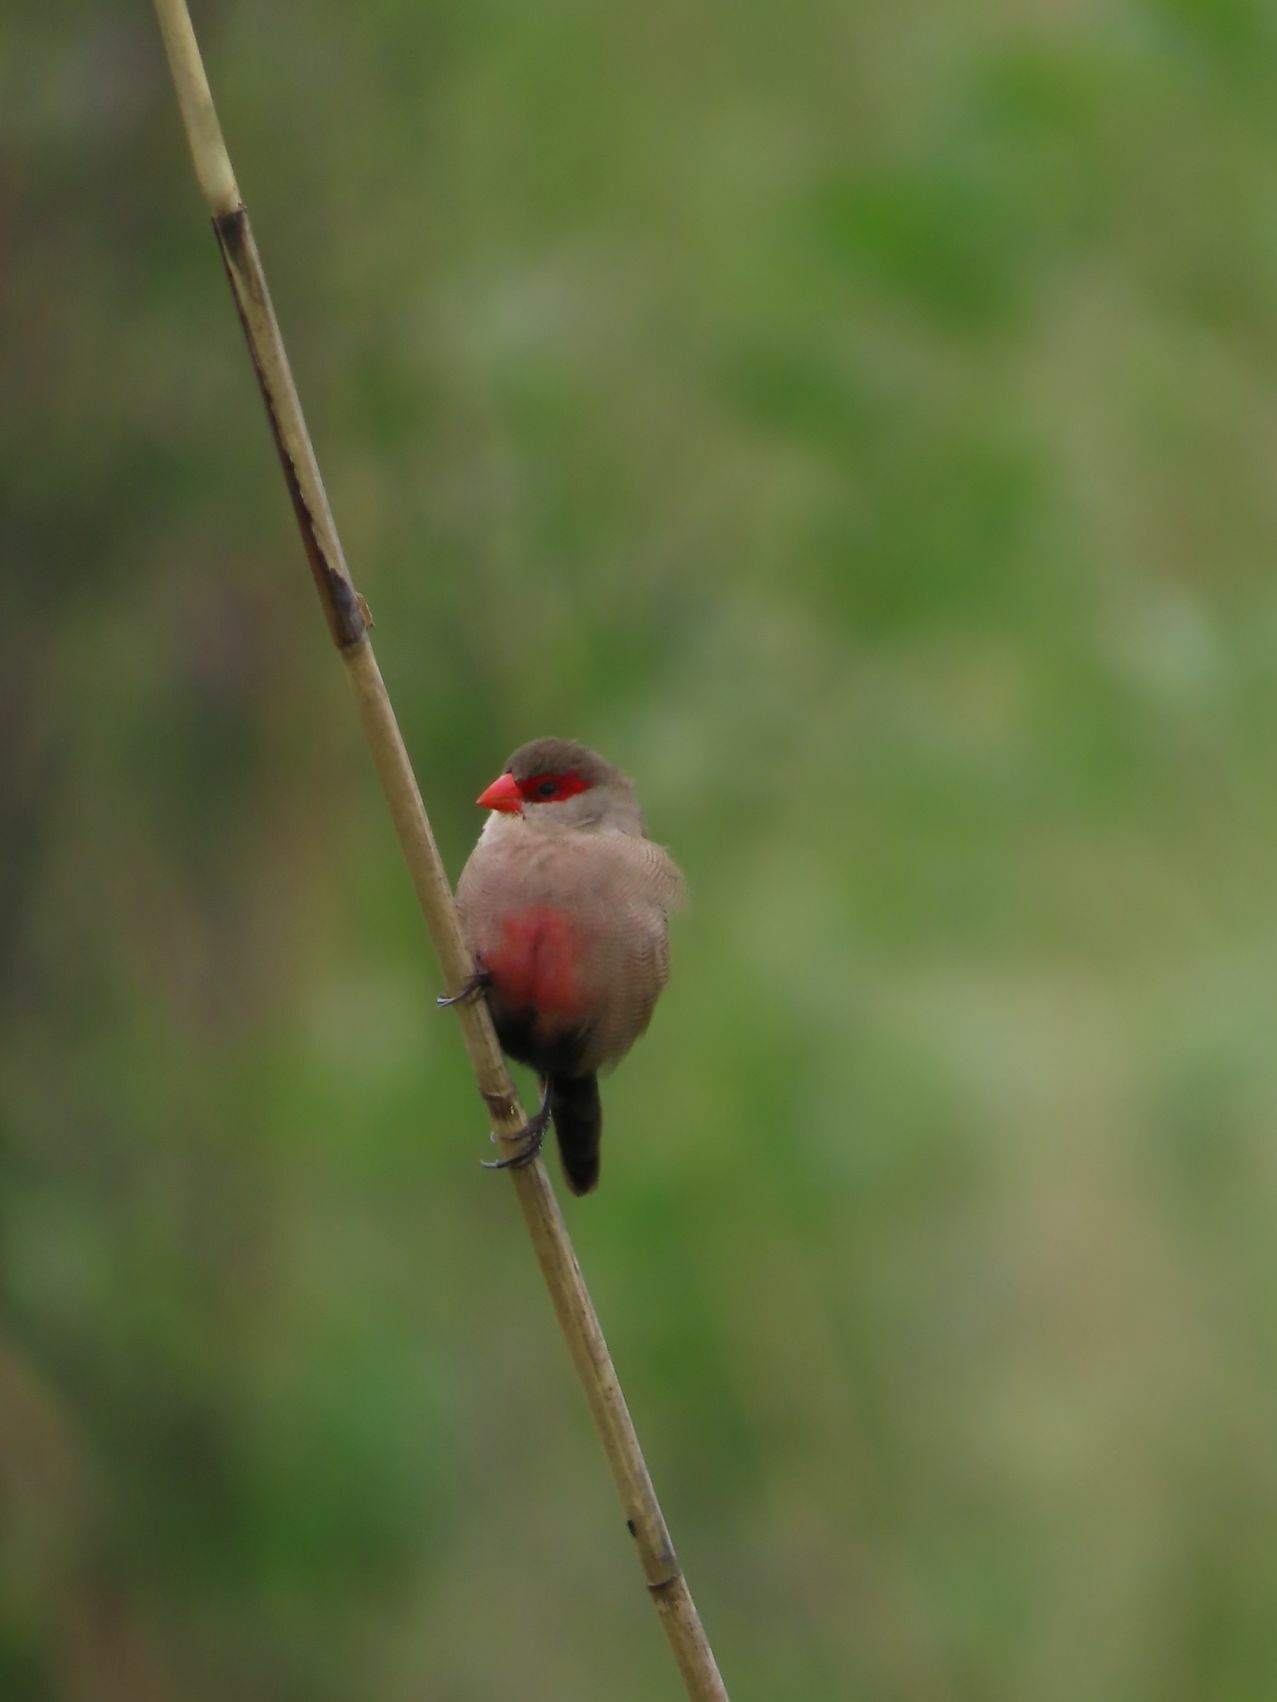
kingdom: Animalia
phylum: Chordata
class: Aves
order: Passeriformes
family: Estrildidae
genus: Estrilda
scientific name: Estrilda astrild
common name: Common waxbill
